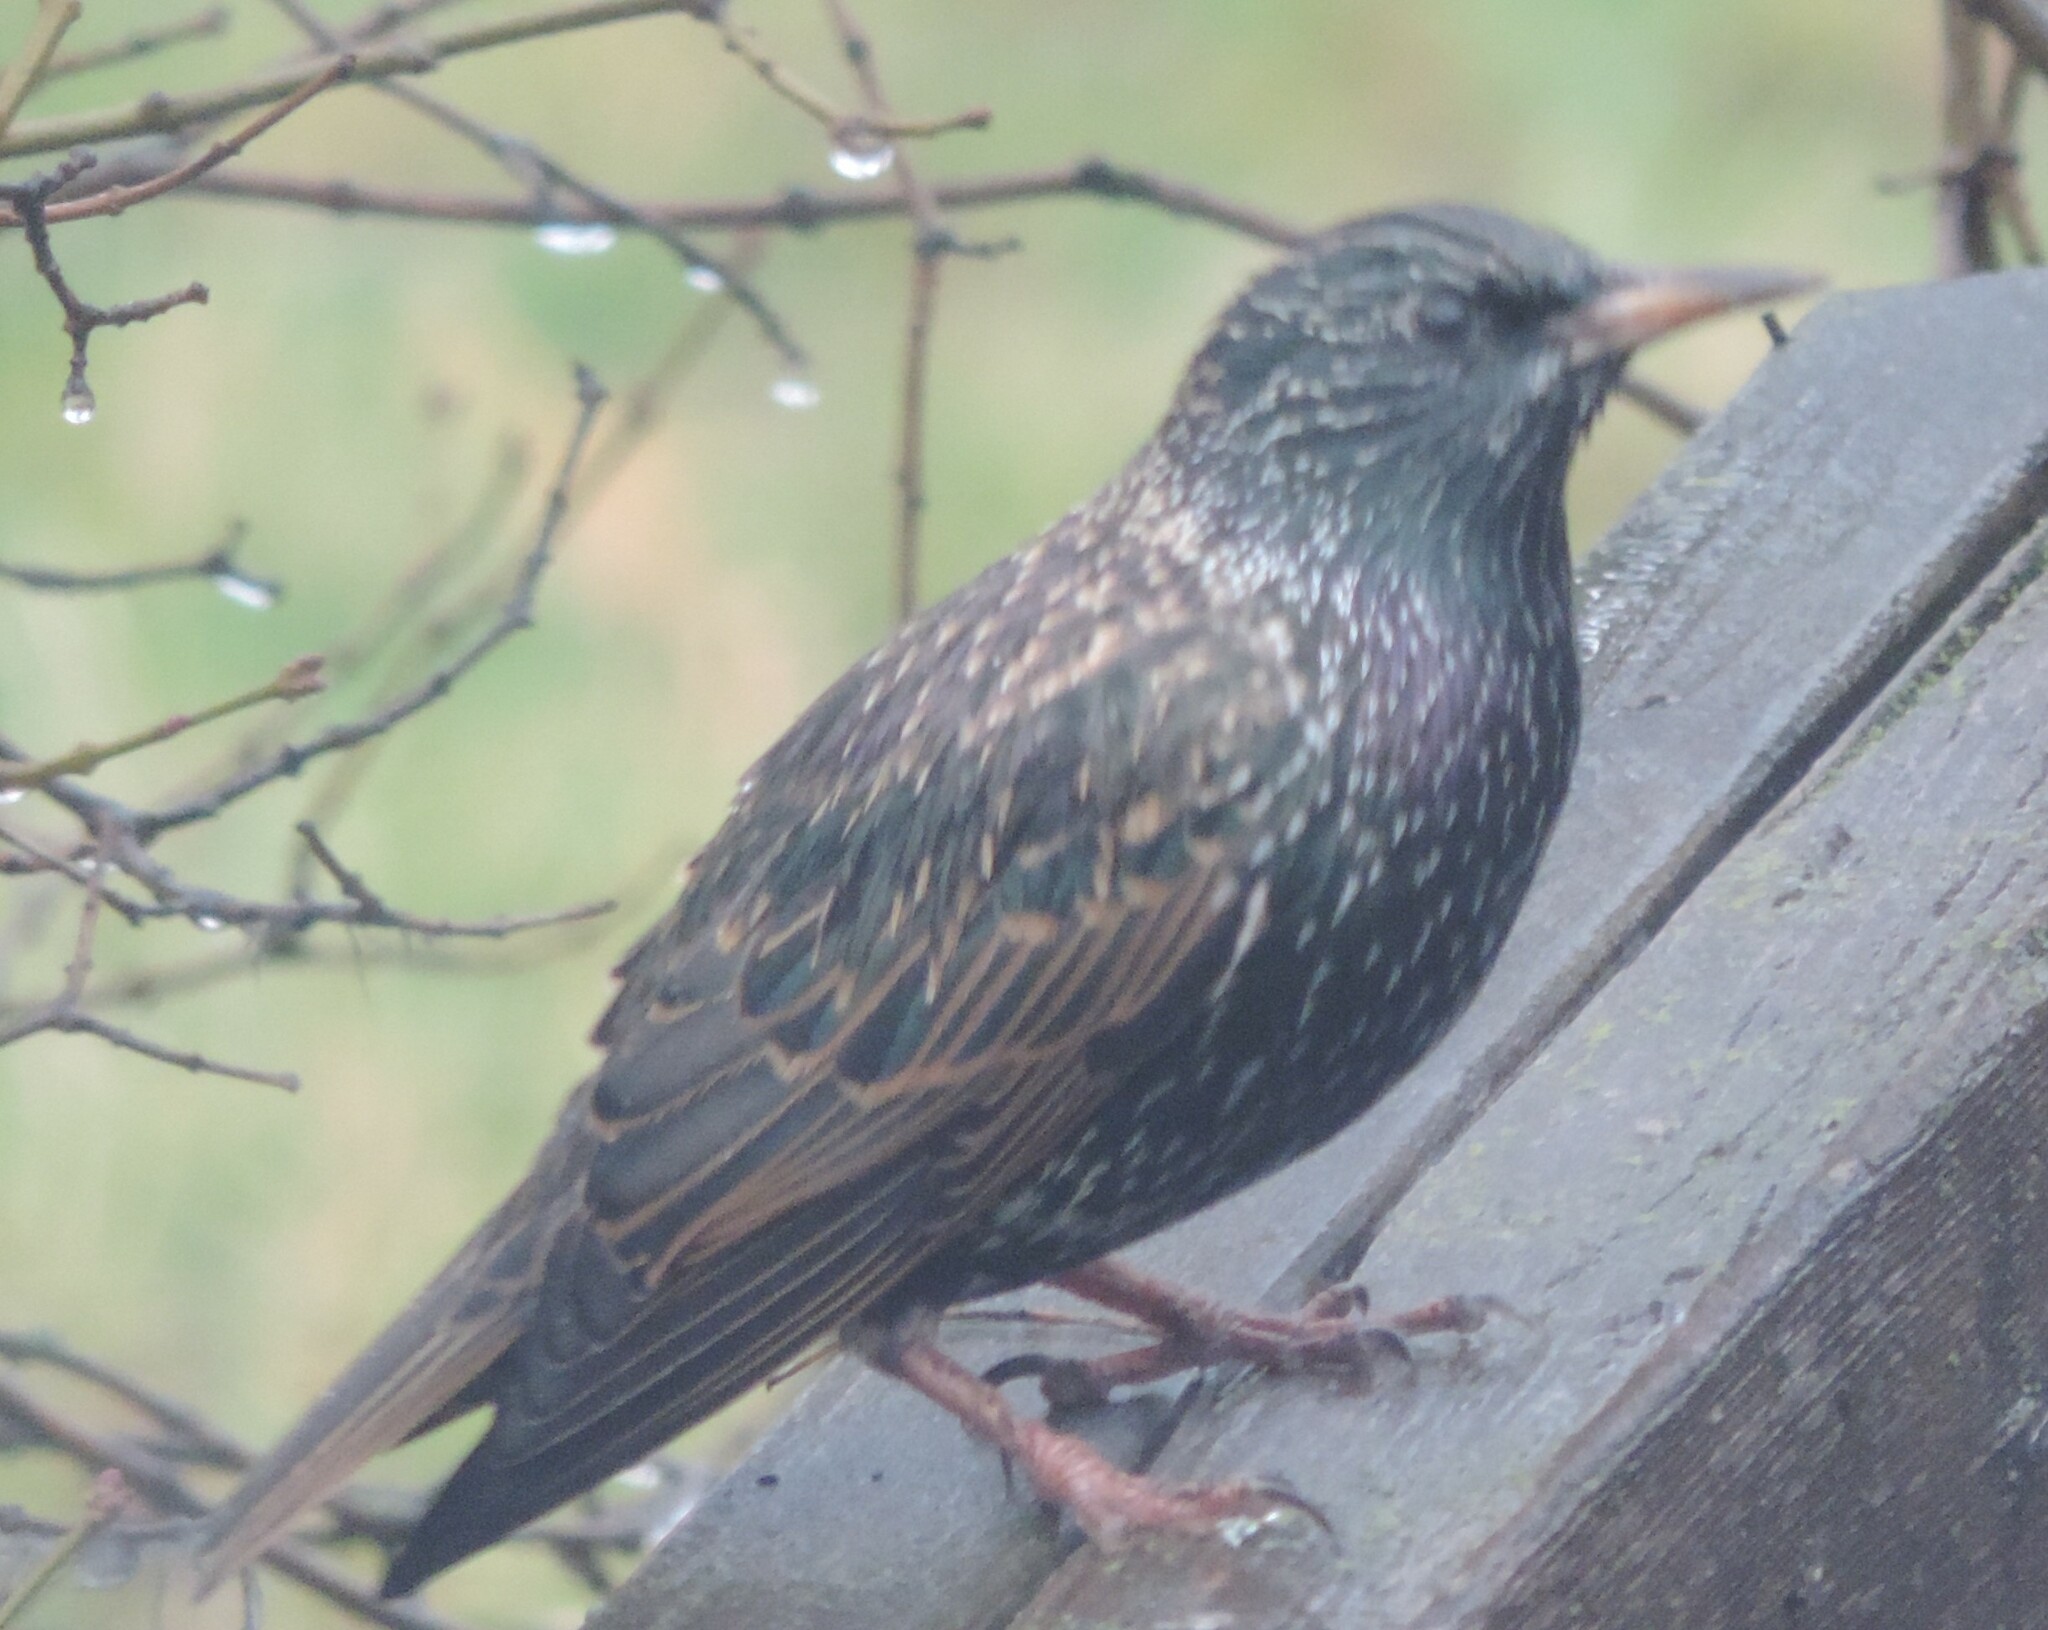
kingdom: Animalia
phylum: Chordata
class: Aves
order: Passeriformes
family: Sturnidae
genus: Sturnus
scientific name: Sturnus vulgaris
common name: Common starling
